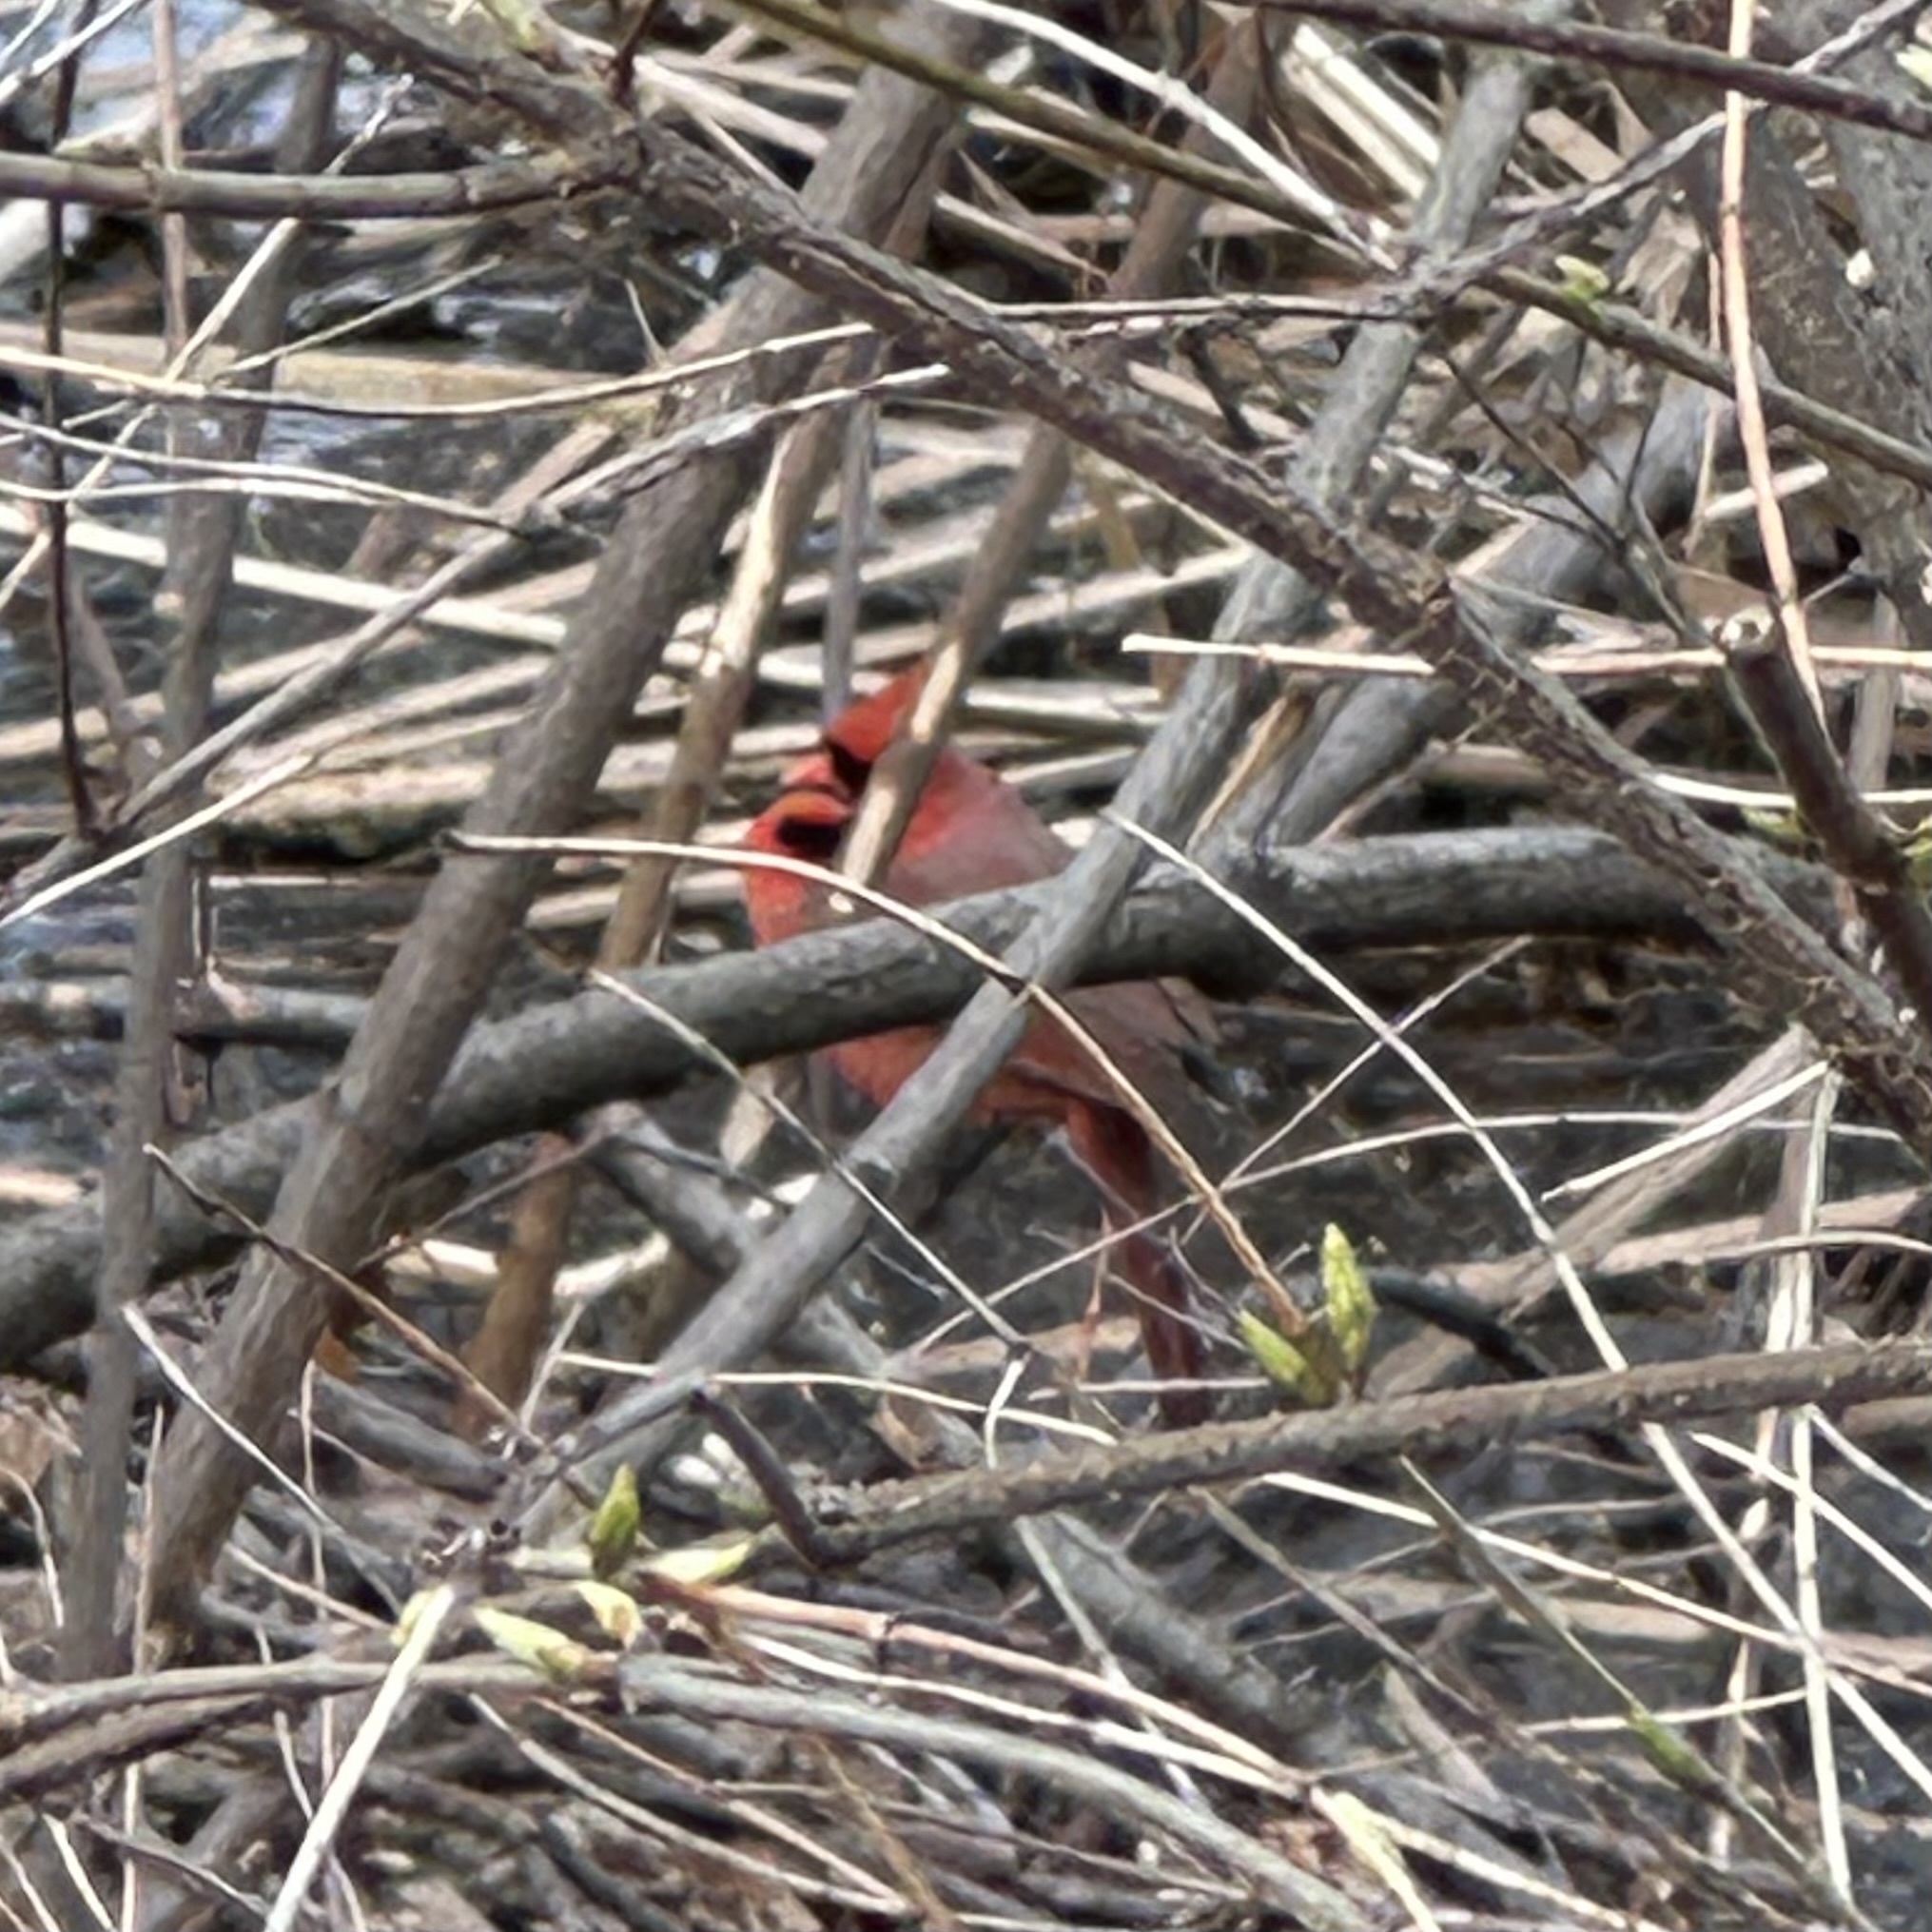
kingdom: Animalia
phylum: Chordata
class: Aves
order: Passeriformes
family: Cardinalidae
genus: Cardinalis
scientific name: Cardinalis cardinalis
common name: Northern cardinal
